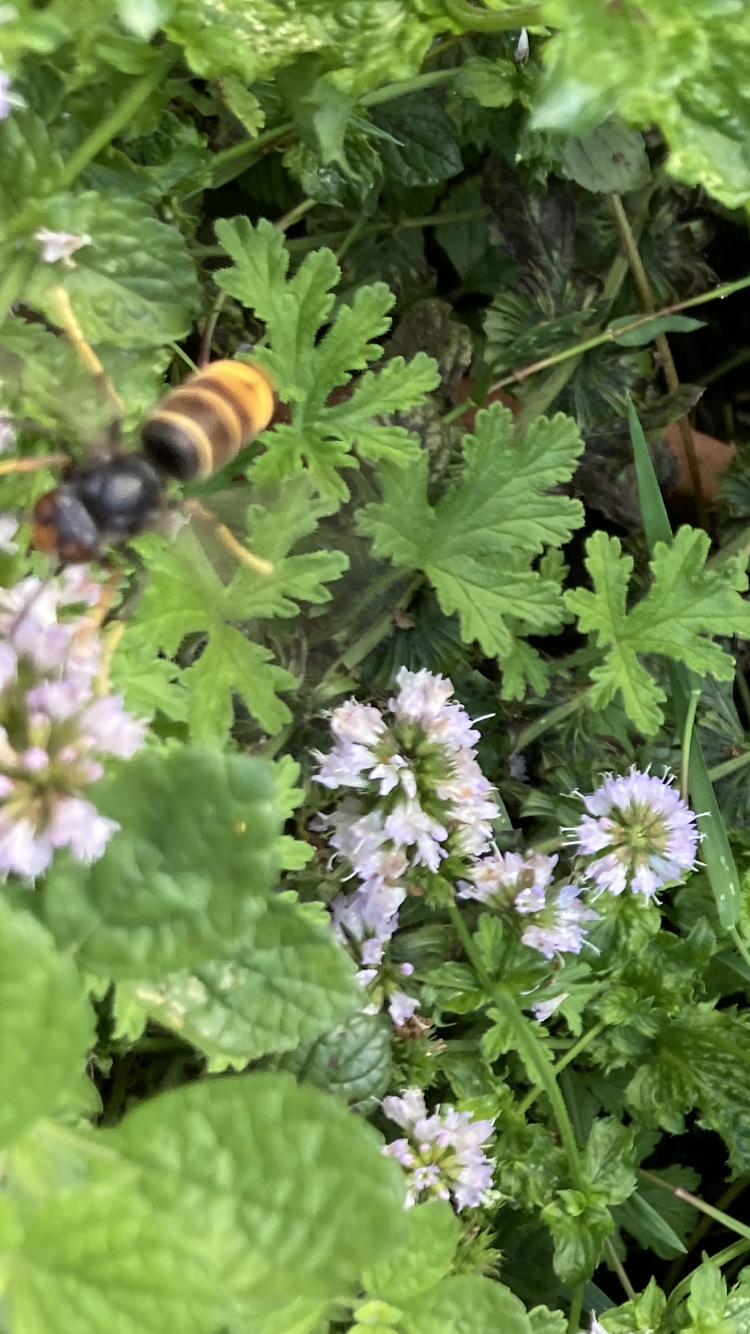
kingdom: Animalia
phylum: Arthropoda
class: Insecta
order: Hymenoptera
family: Vespidae
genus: Vespa
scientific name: Vespa velutina
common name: Asian hornet
